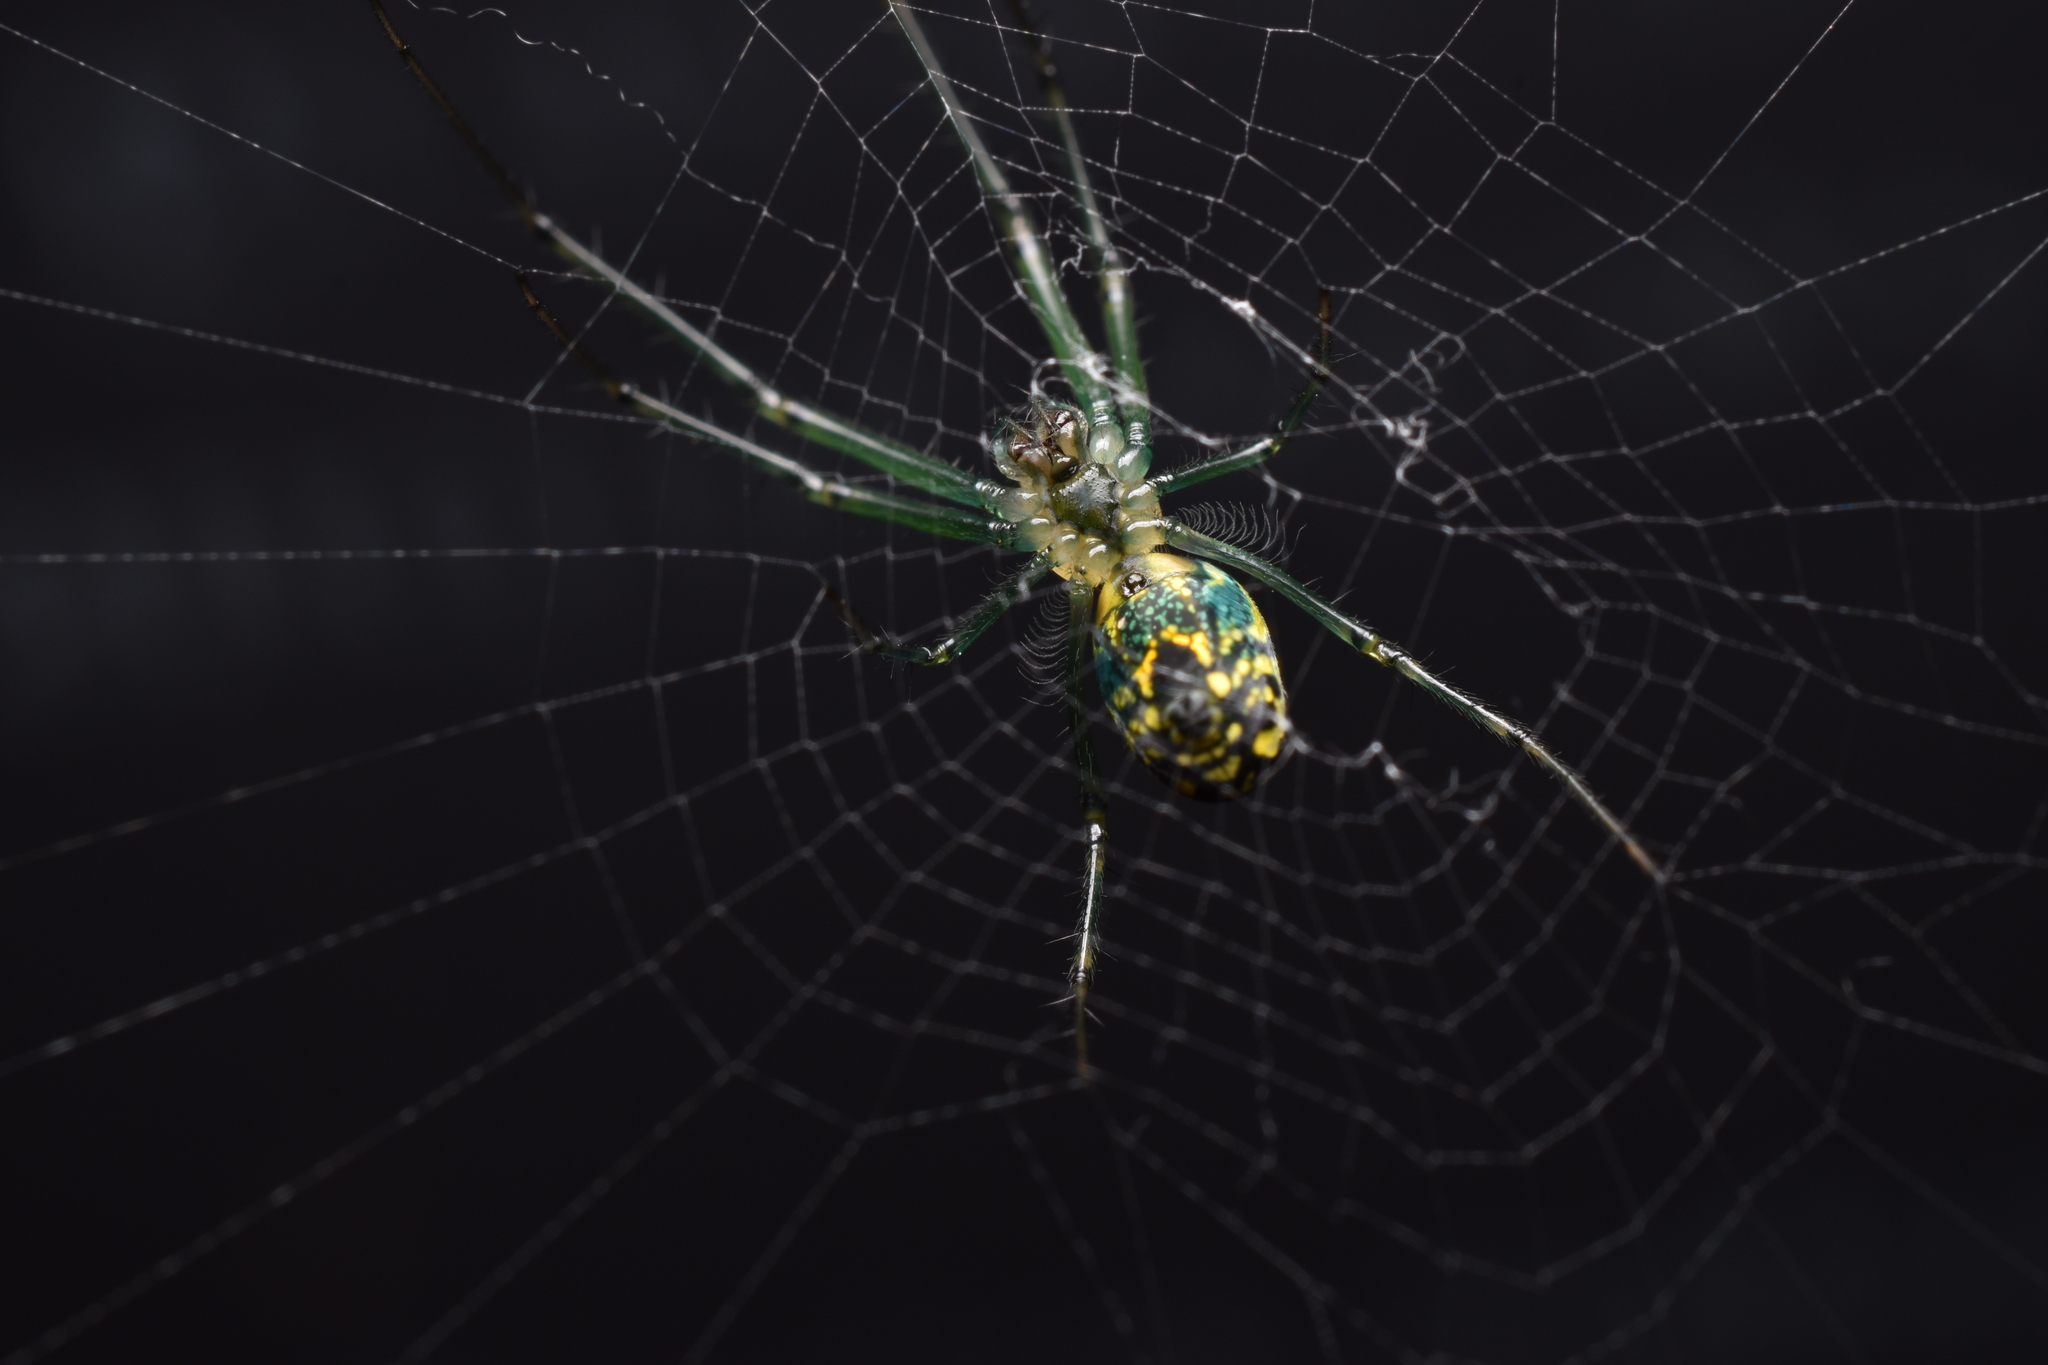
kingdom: Animalia
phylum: Arthropoda
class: Arachnida
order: Araneae
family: Tetragnathidae
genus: Leucauge
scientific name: Leucauge venusta
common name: Longjawed orb weavers
